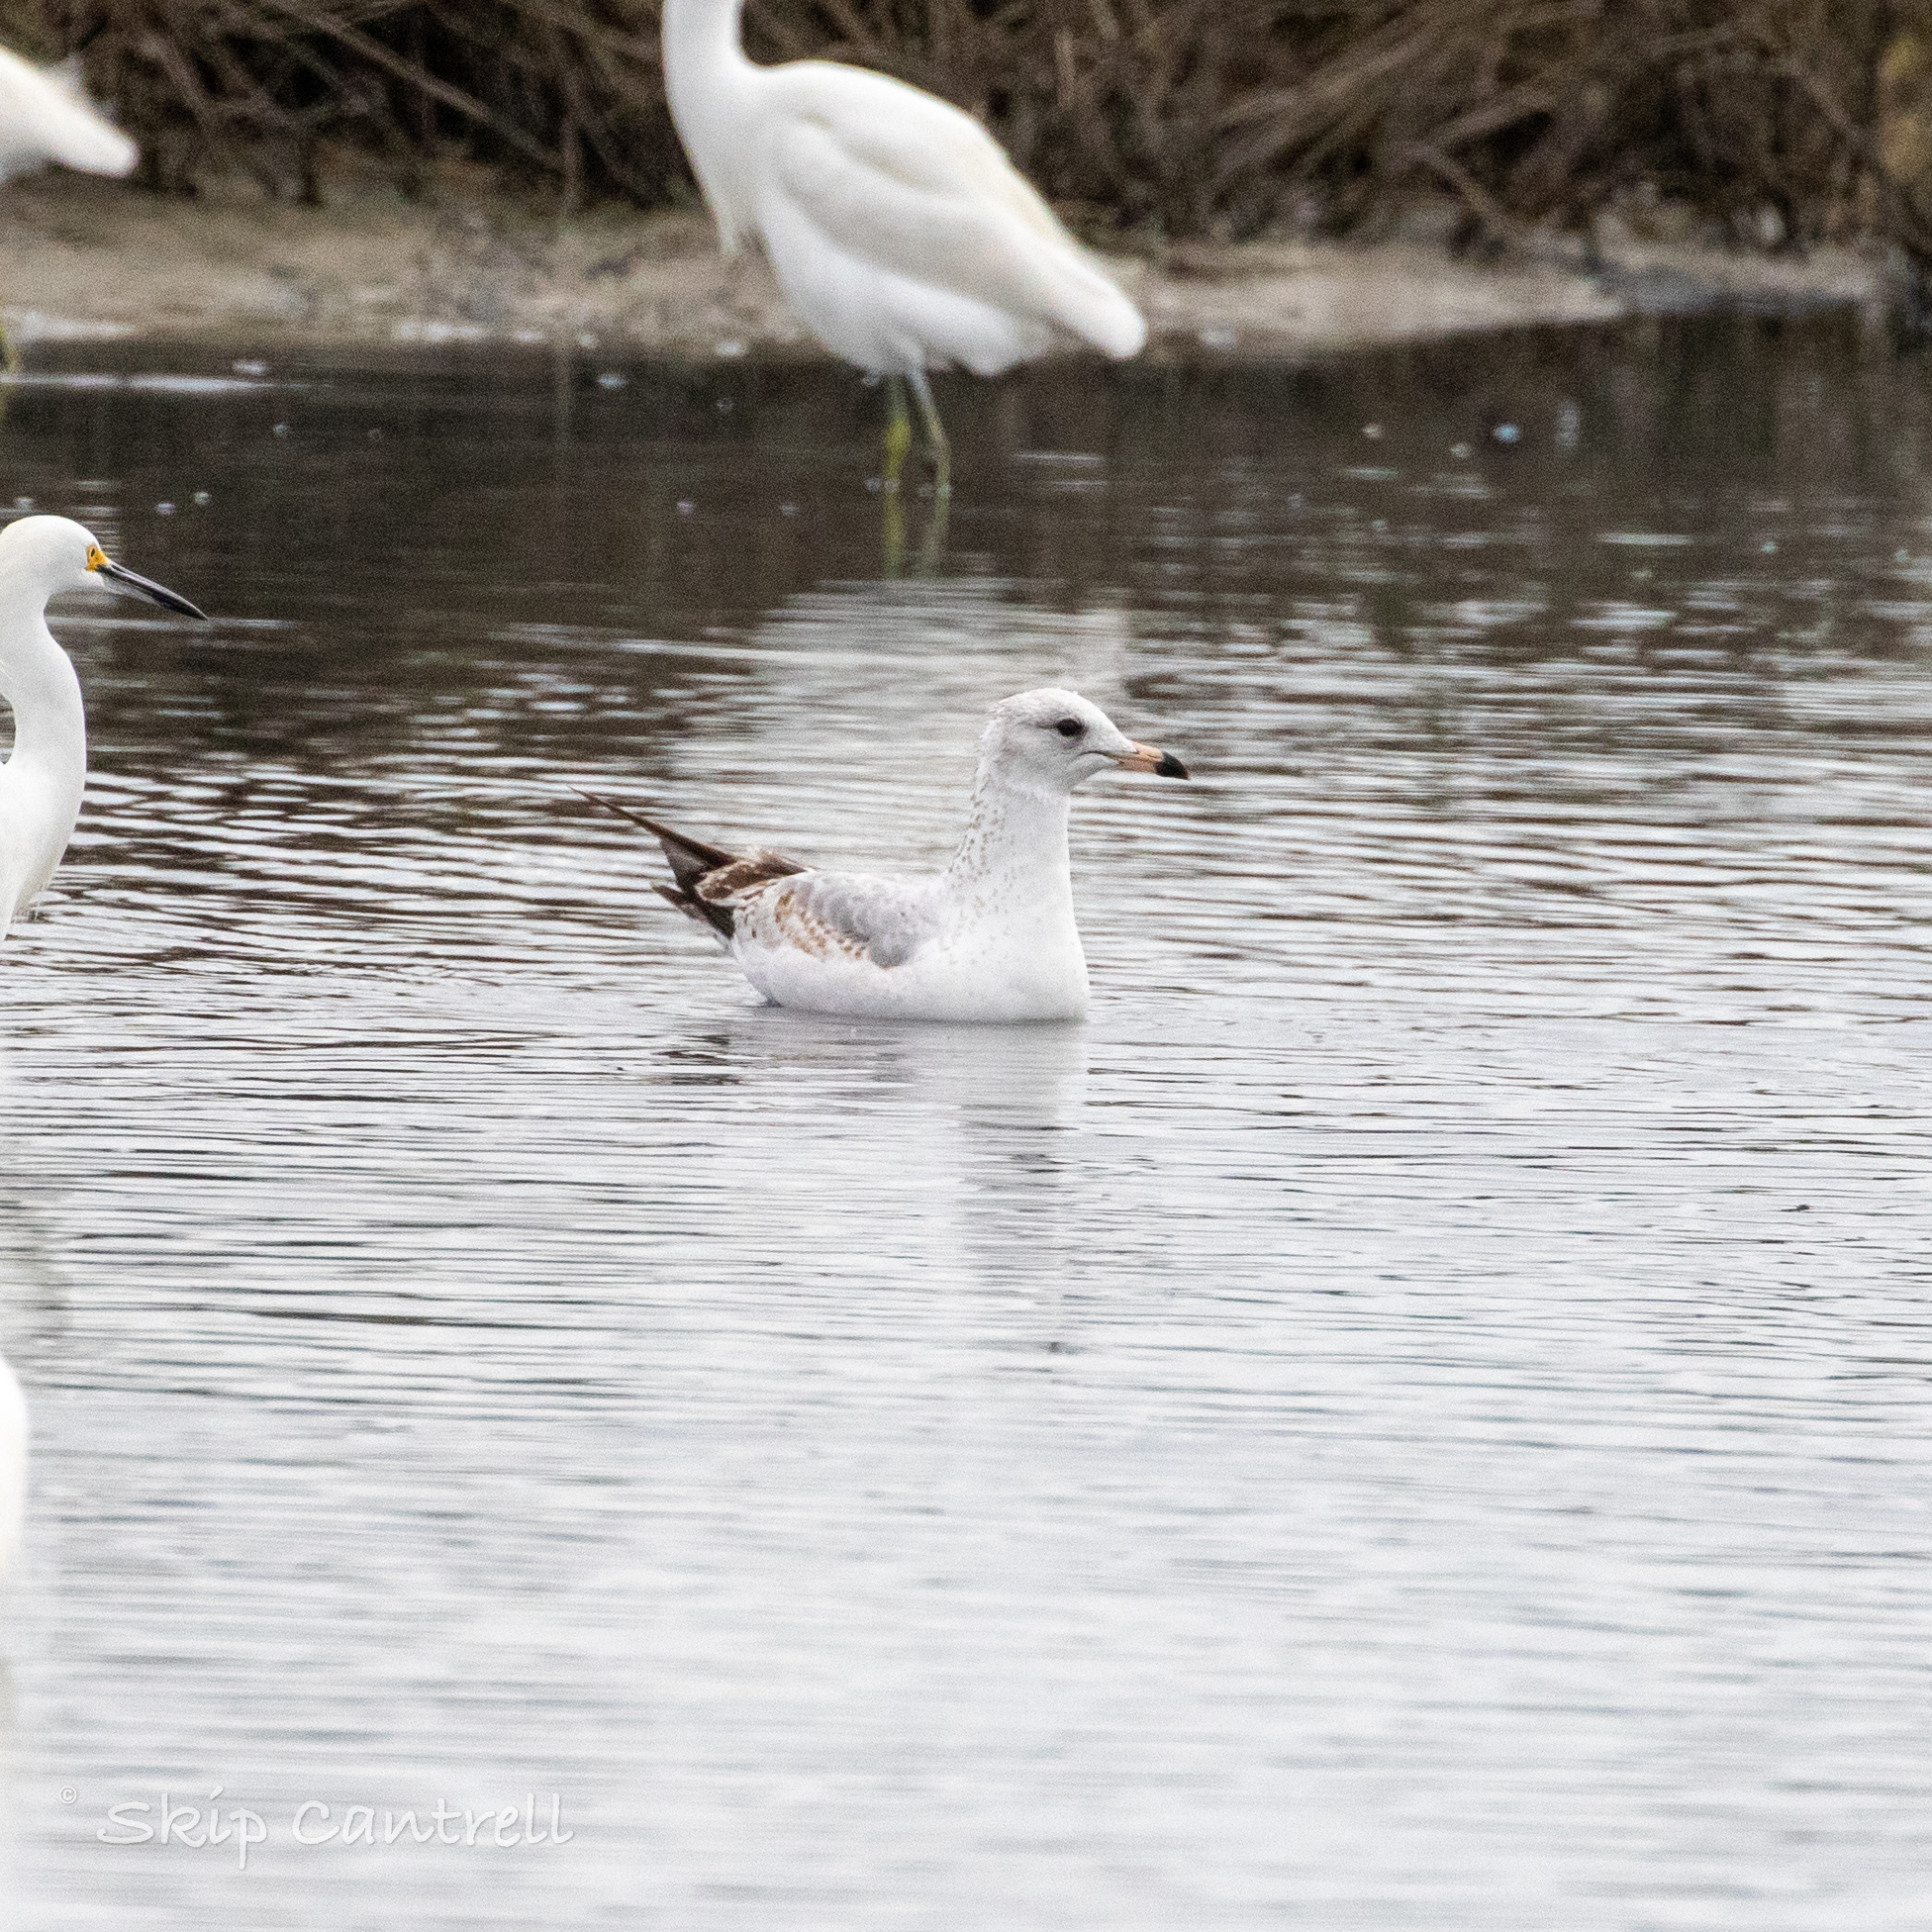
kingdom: Animalia
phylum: Chordata
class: Aves
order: Charadriiformes
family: Laridae
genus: Larus
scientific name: Larus delawarensis
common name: Ring-billed gull
